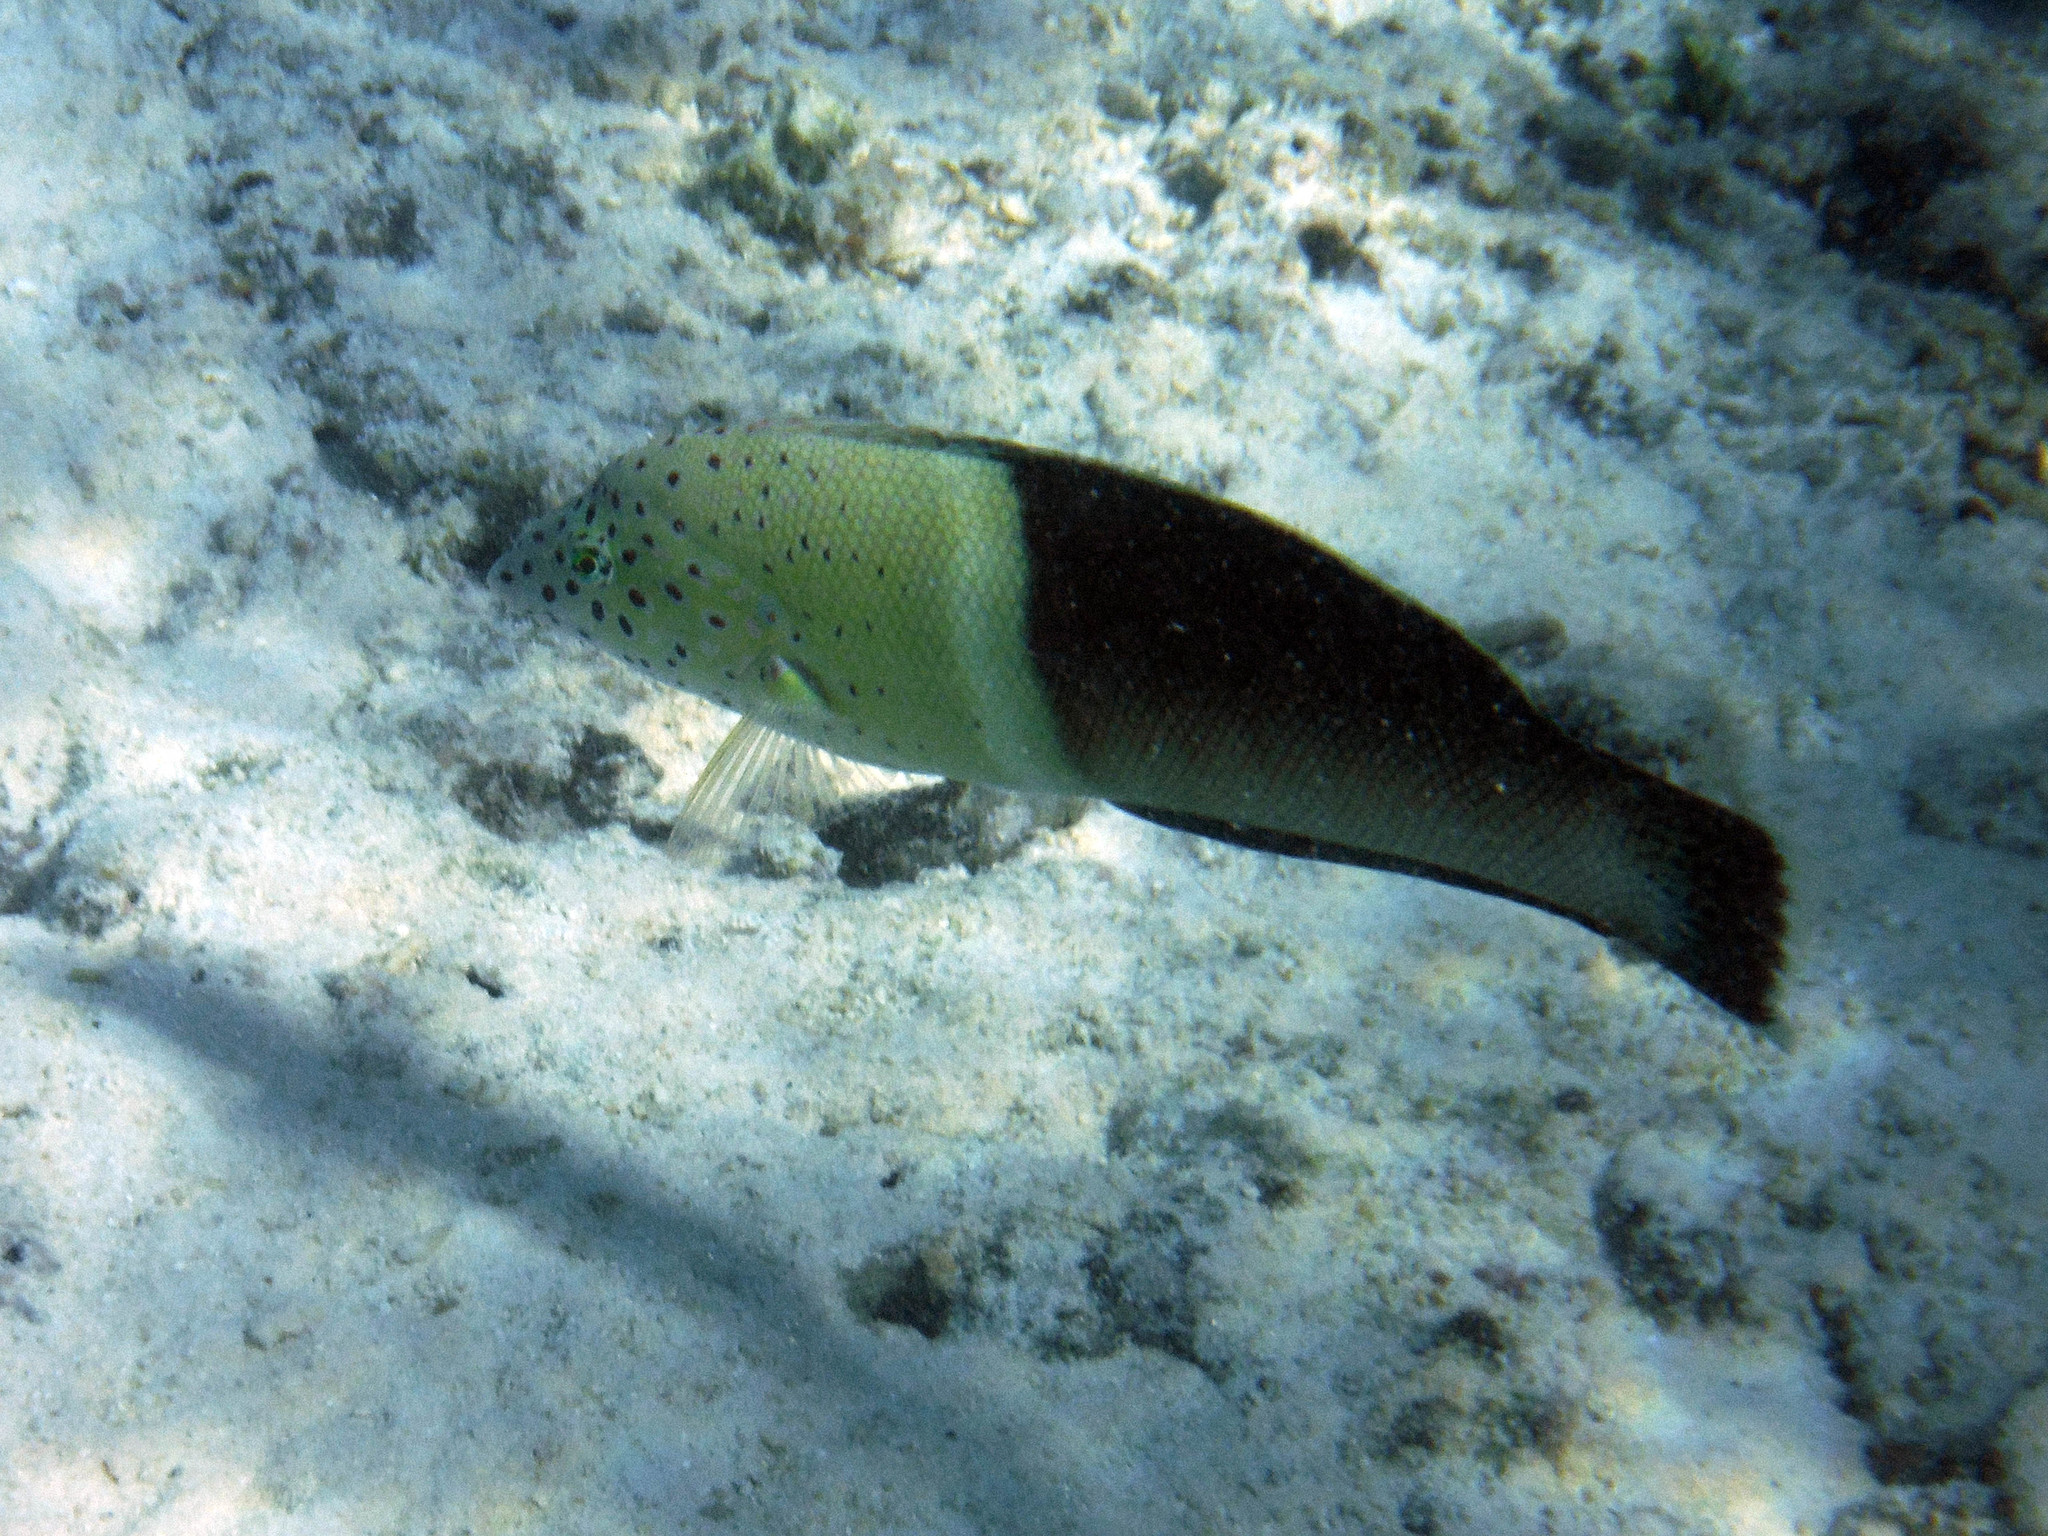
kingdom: Animalia
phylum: Chordata
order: Perciformes
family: Labridae
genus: Coris
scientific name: Coris aygula
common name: Clown coris
